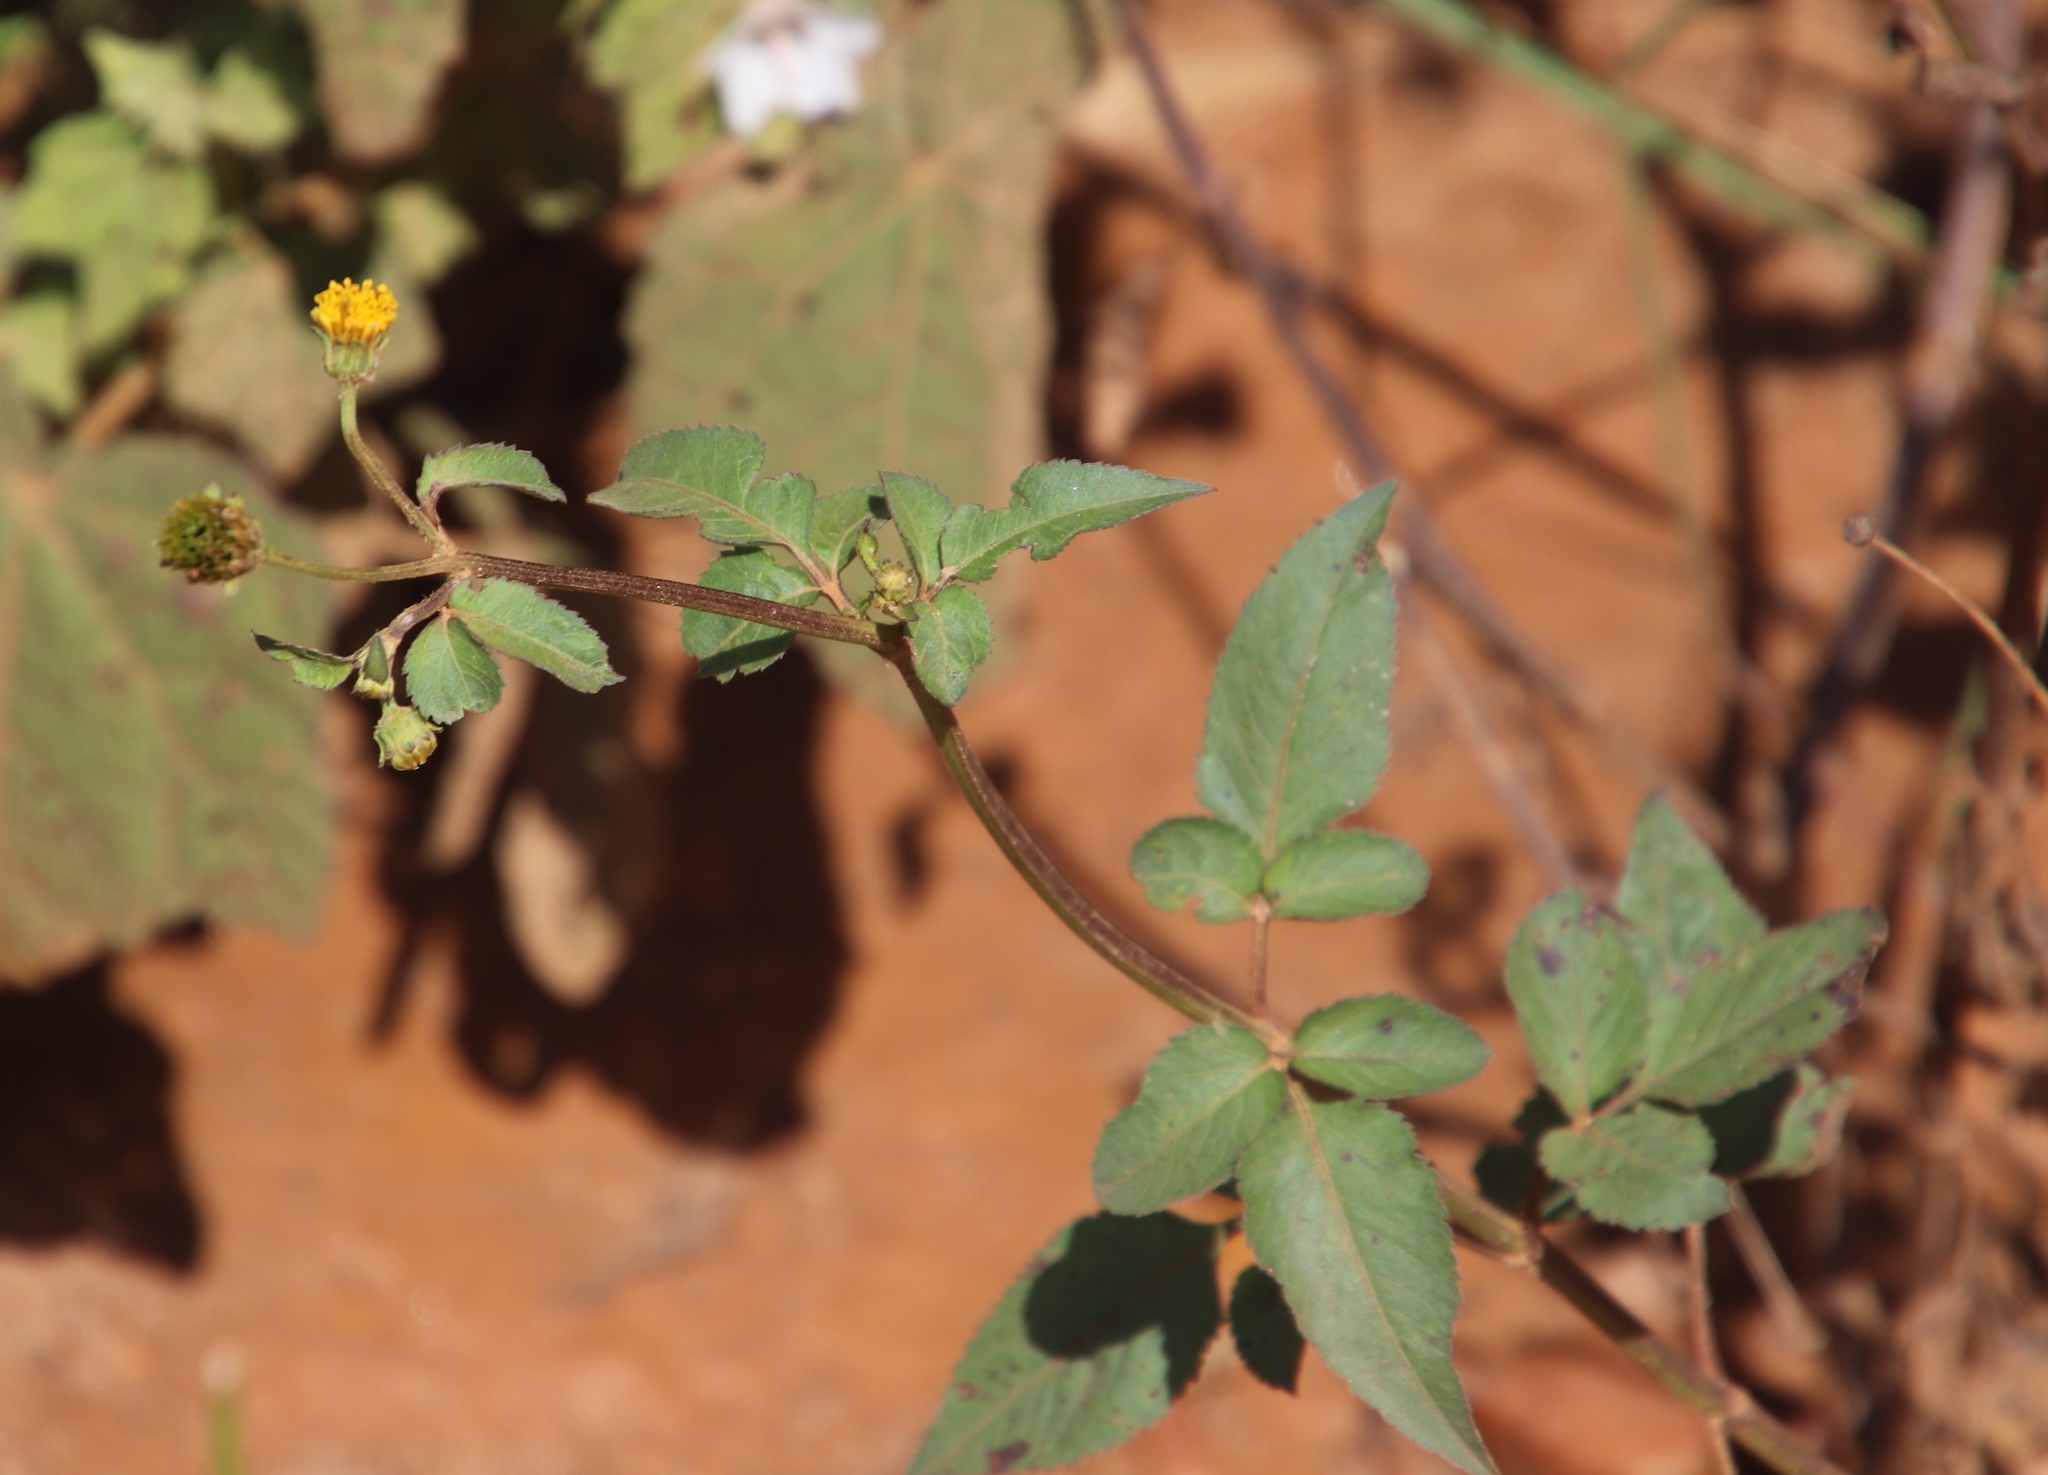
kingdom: Plantae
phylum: Tracheophyta
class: Magnoliopsida
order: Asterales
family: Asteraceae
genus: Bidens
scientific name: Bidens pilosa
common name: Black-jack
